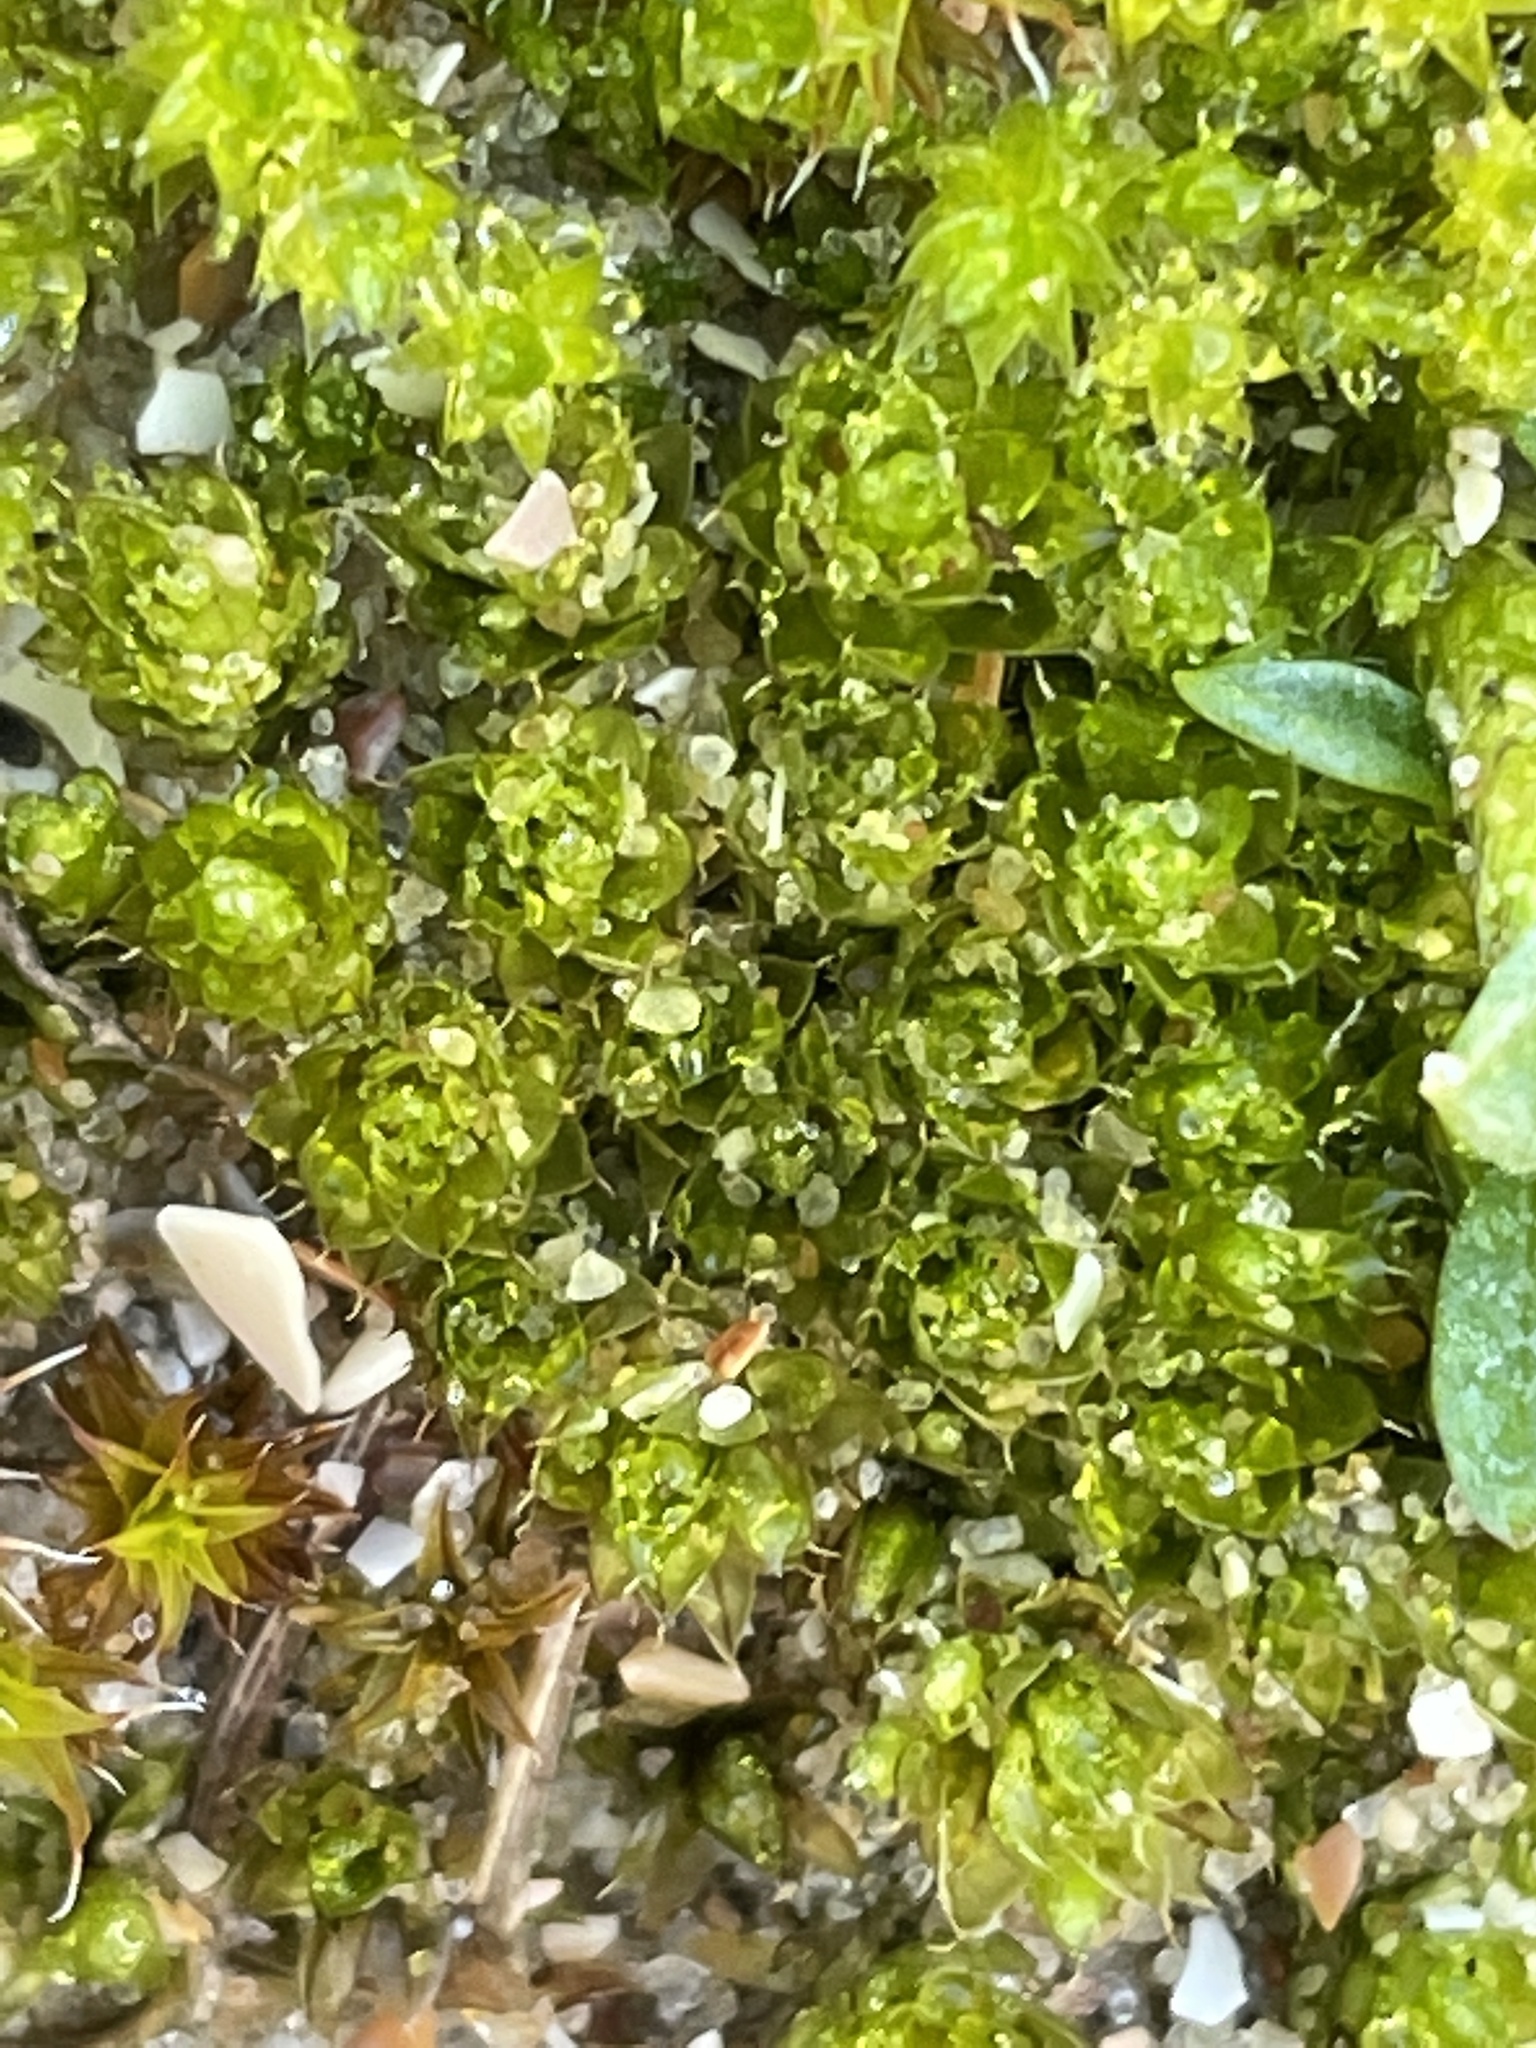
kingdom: Plantae
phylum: Bryophyta
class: Bryopsida
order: Bryales
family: Bryaceae
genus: Rosulabryum
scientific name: Rosulabryum capillare
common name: Capillary thread-moss
